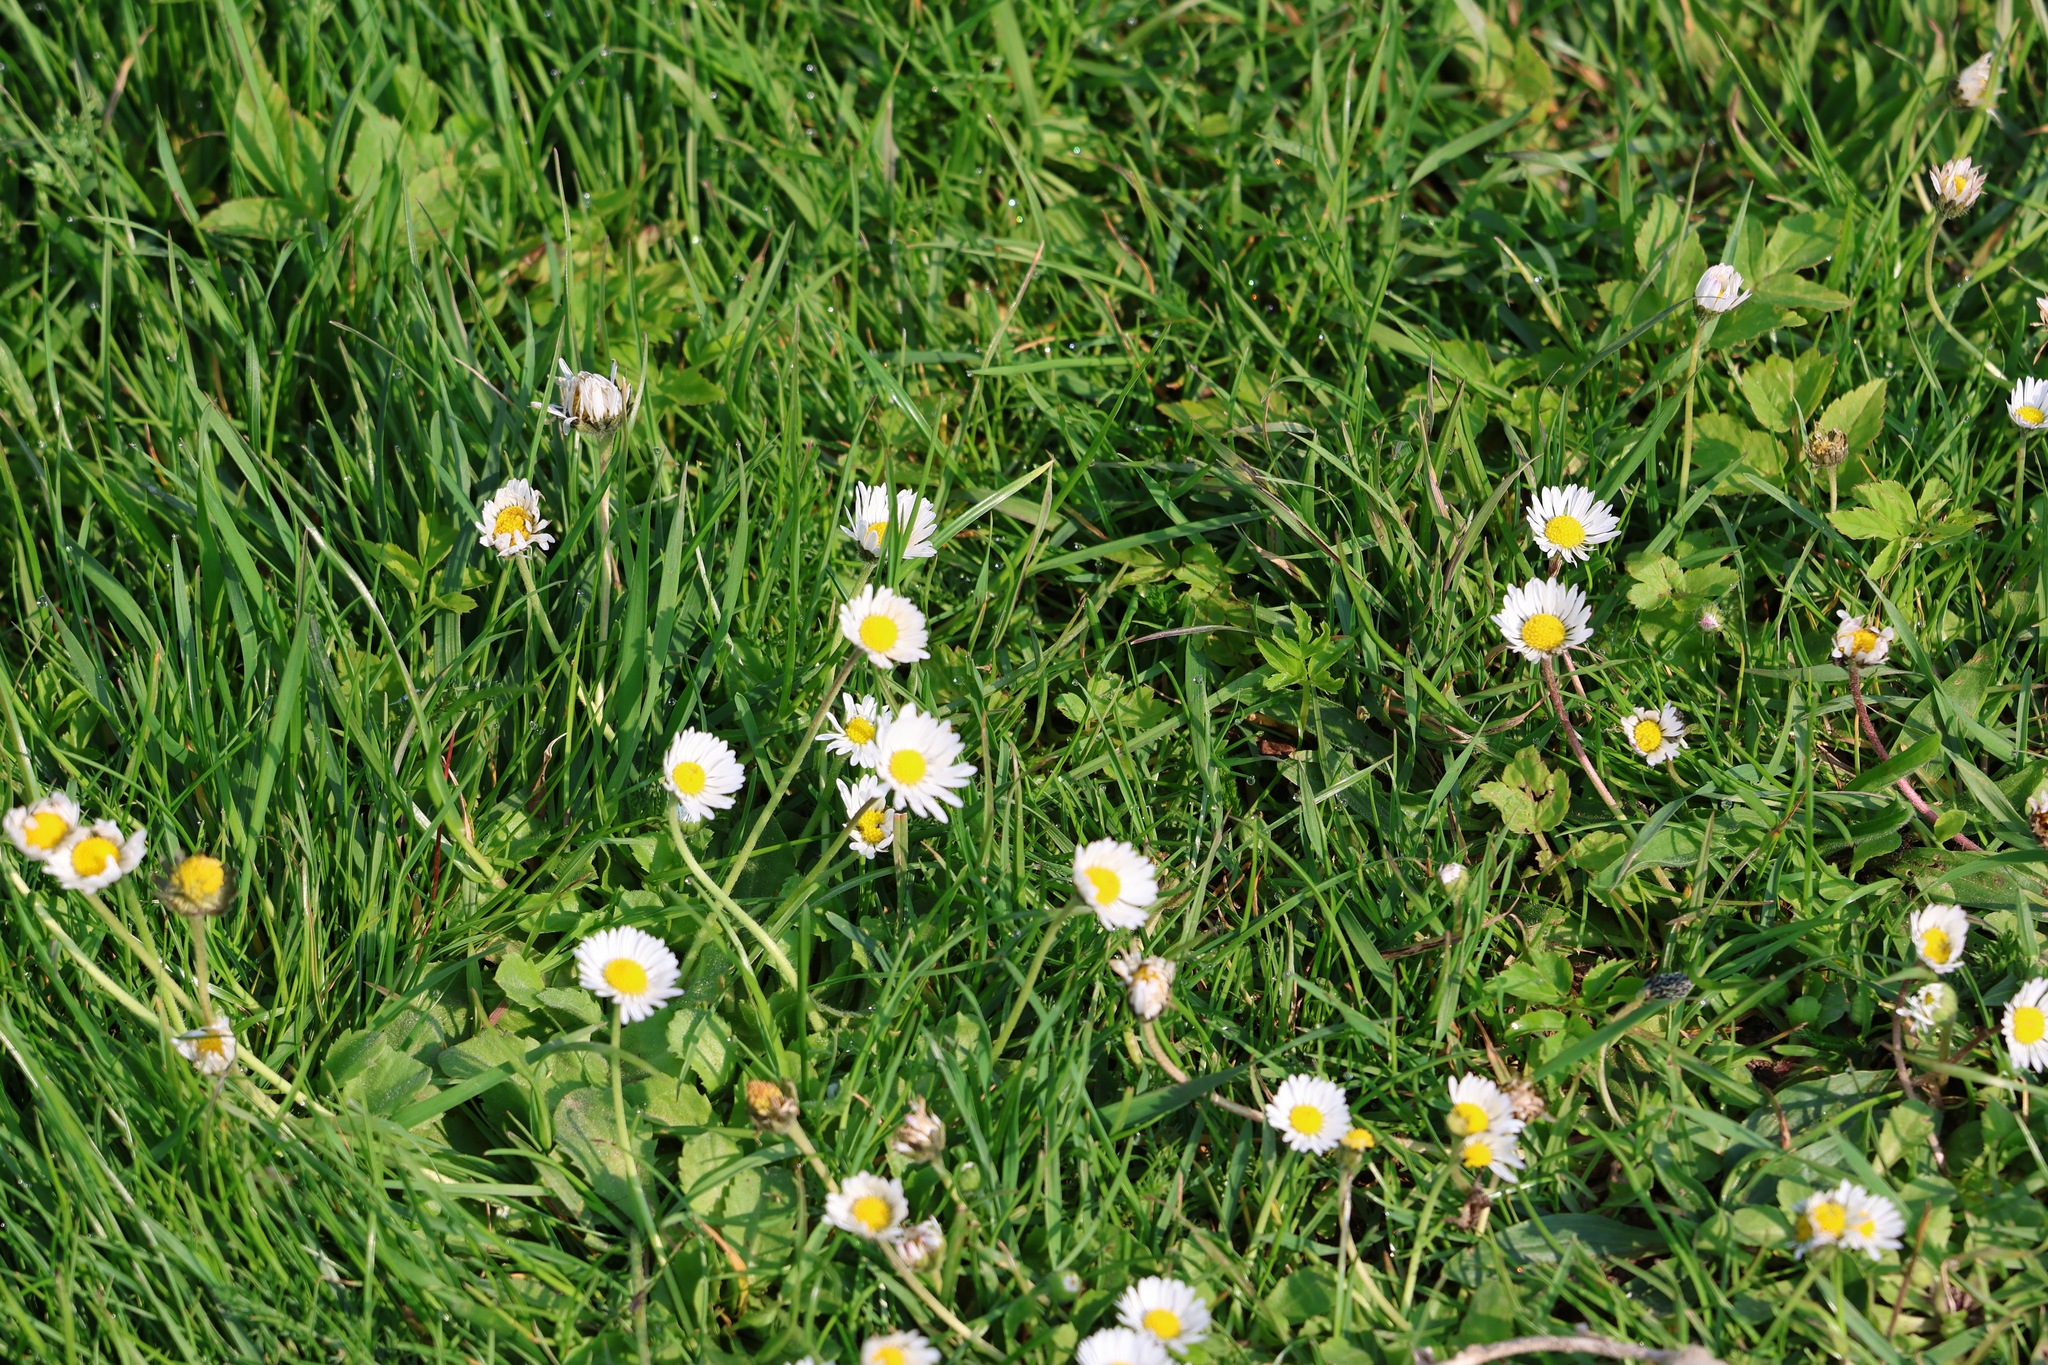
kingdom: Plantae
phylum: Tracheophyta
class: Magnoliopsida
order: Asterales
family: Asteraceae
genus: Bellis
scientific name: Bellis perennis
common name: Lawndaisy
